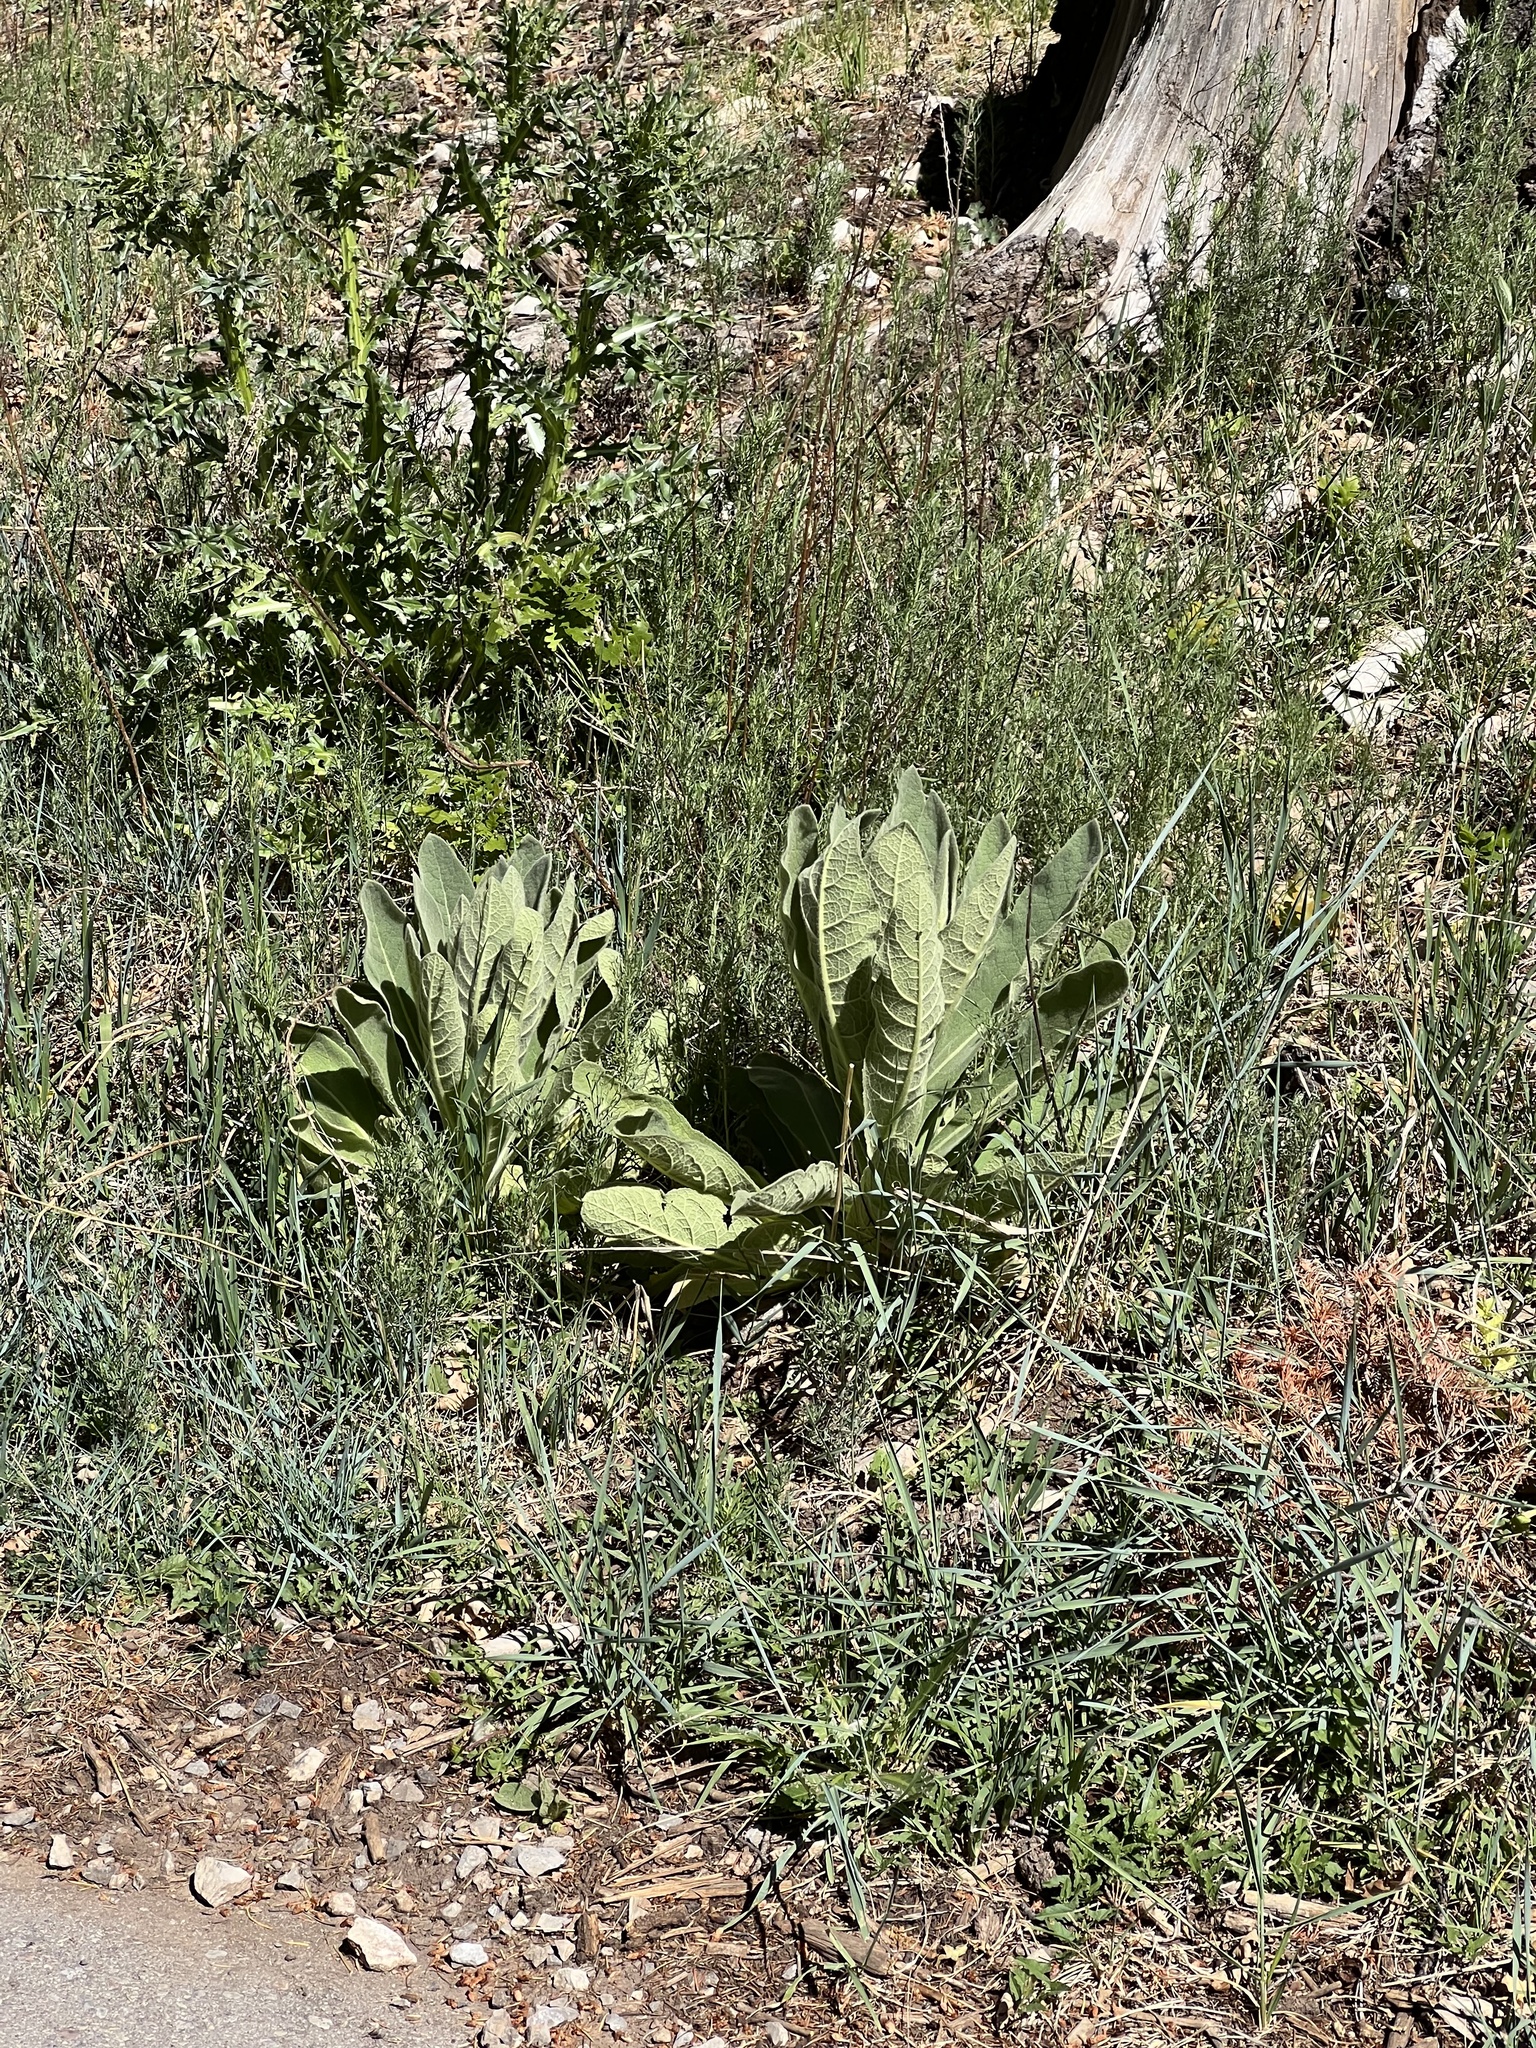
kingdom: Plantae
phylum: Tracheophyta
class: Magnoliopsida
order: Lamiales
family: Scrophulariaceae
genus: Verbascum
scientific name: Verbascum thapsus
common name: Common mullein
